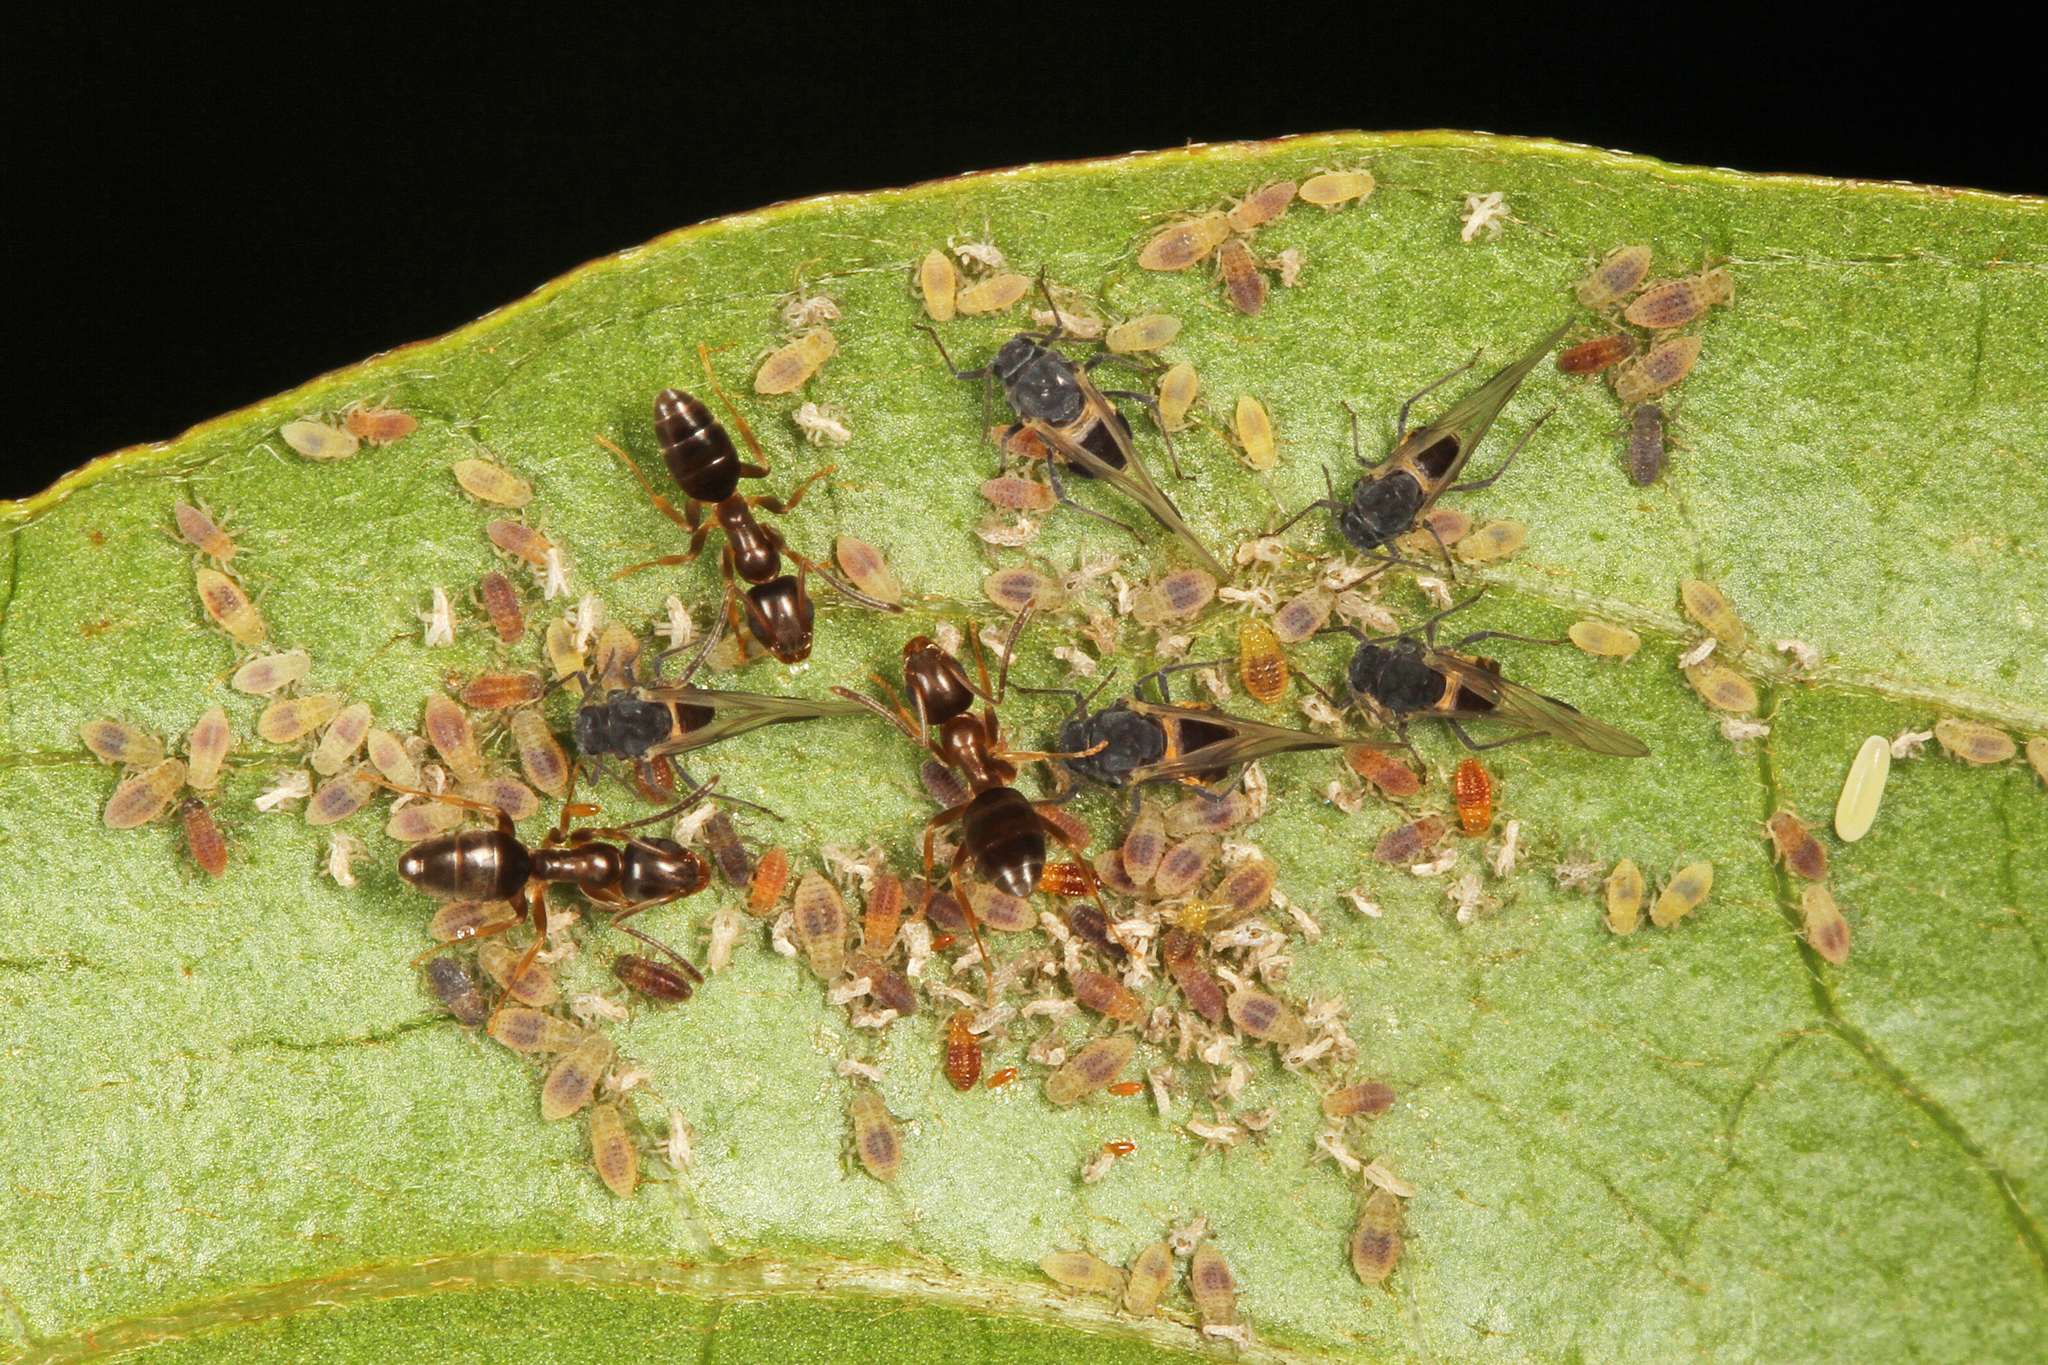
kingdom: Animalia
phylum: Arthropoda
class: Insecta
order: Hymenoptera
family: Formicidae
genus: Tapinoma
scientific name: Tapinoma sessile
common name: Odorous house ant
